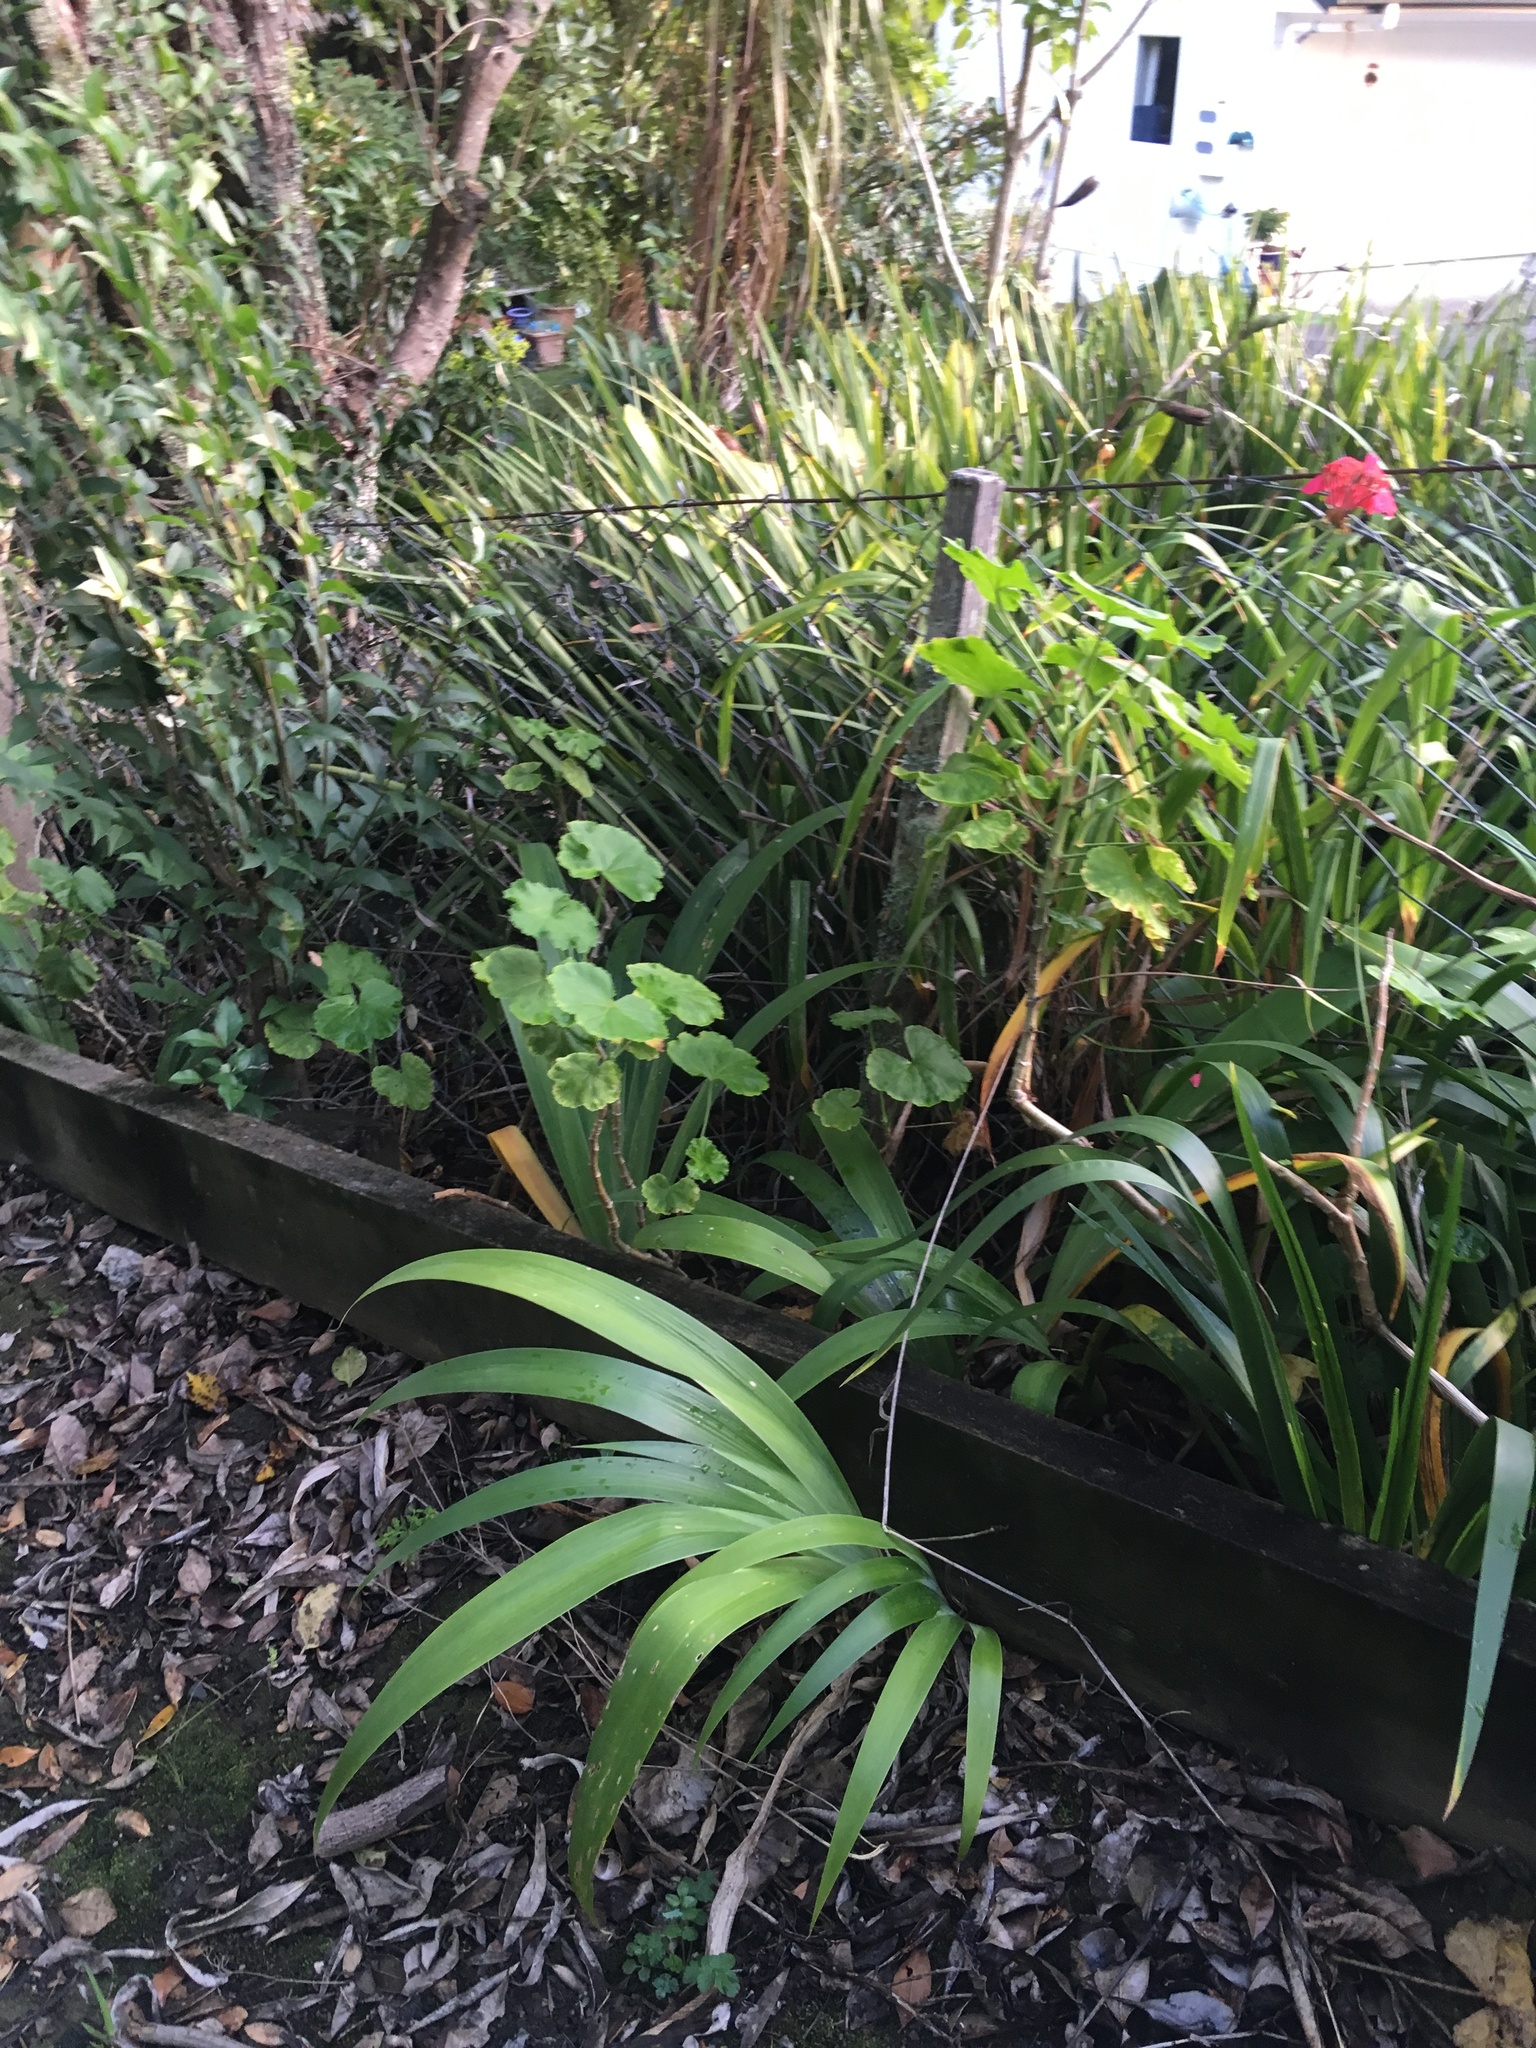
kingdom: Plantae
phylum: Tracheophyta
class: Liliopsida
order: Asparagales
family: Iridaceae
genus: Iris
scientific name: Iris foetidissima
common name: Stinking iris
